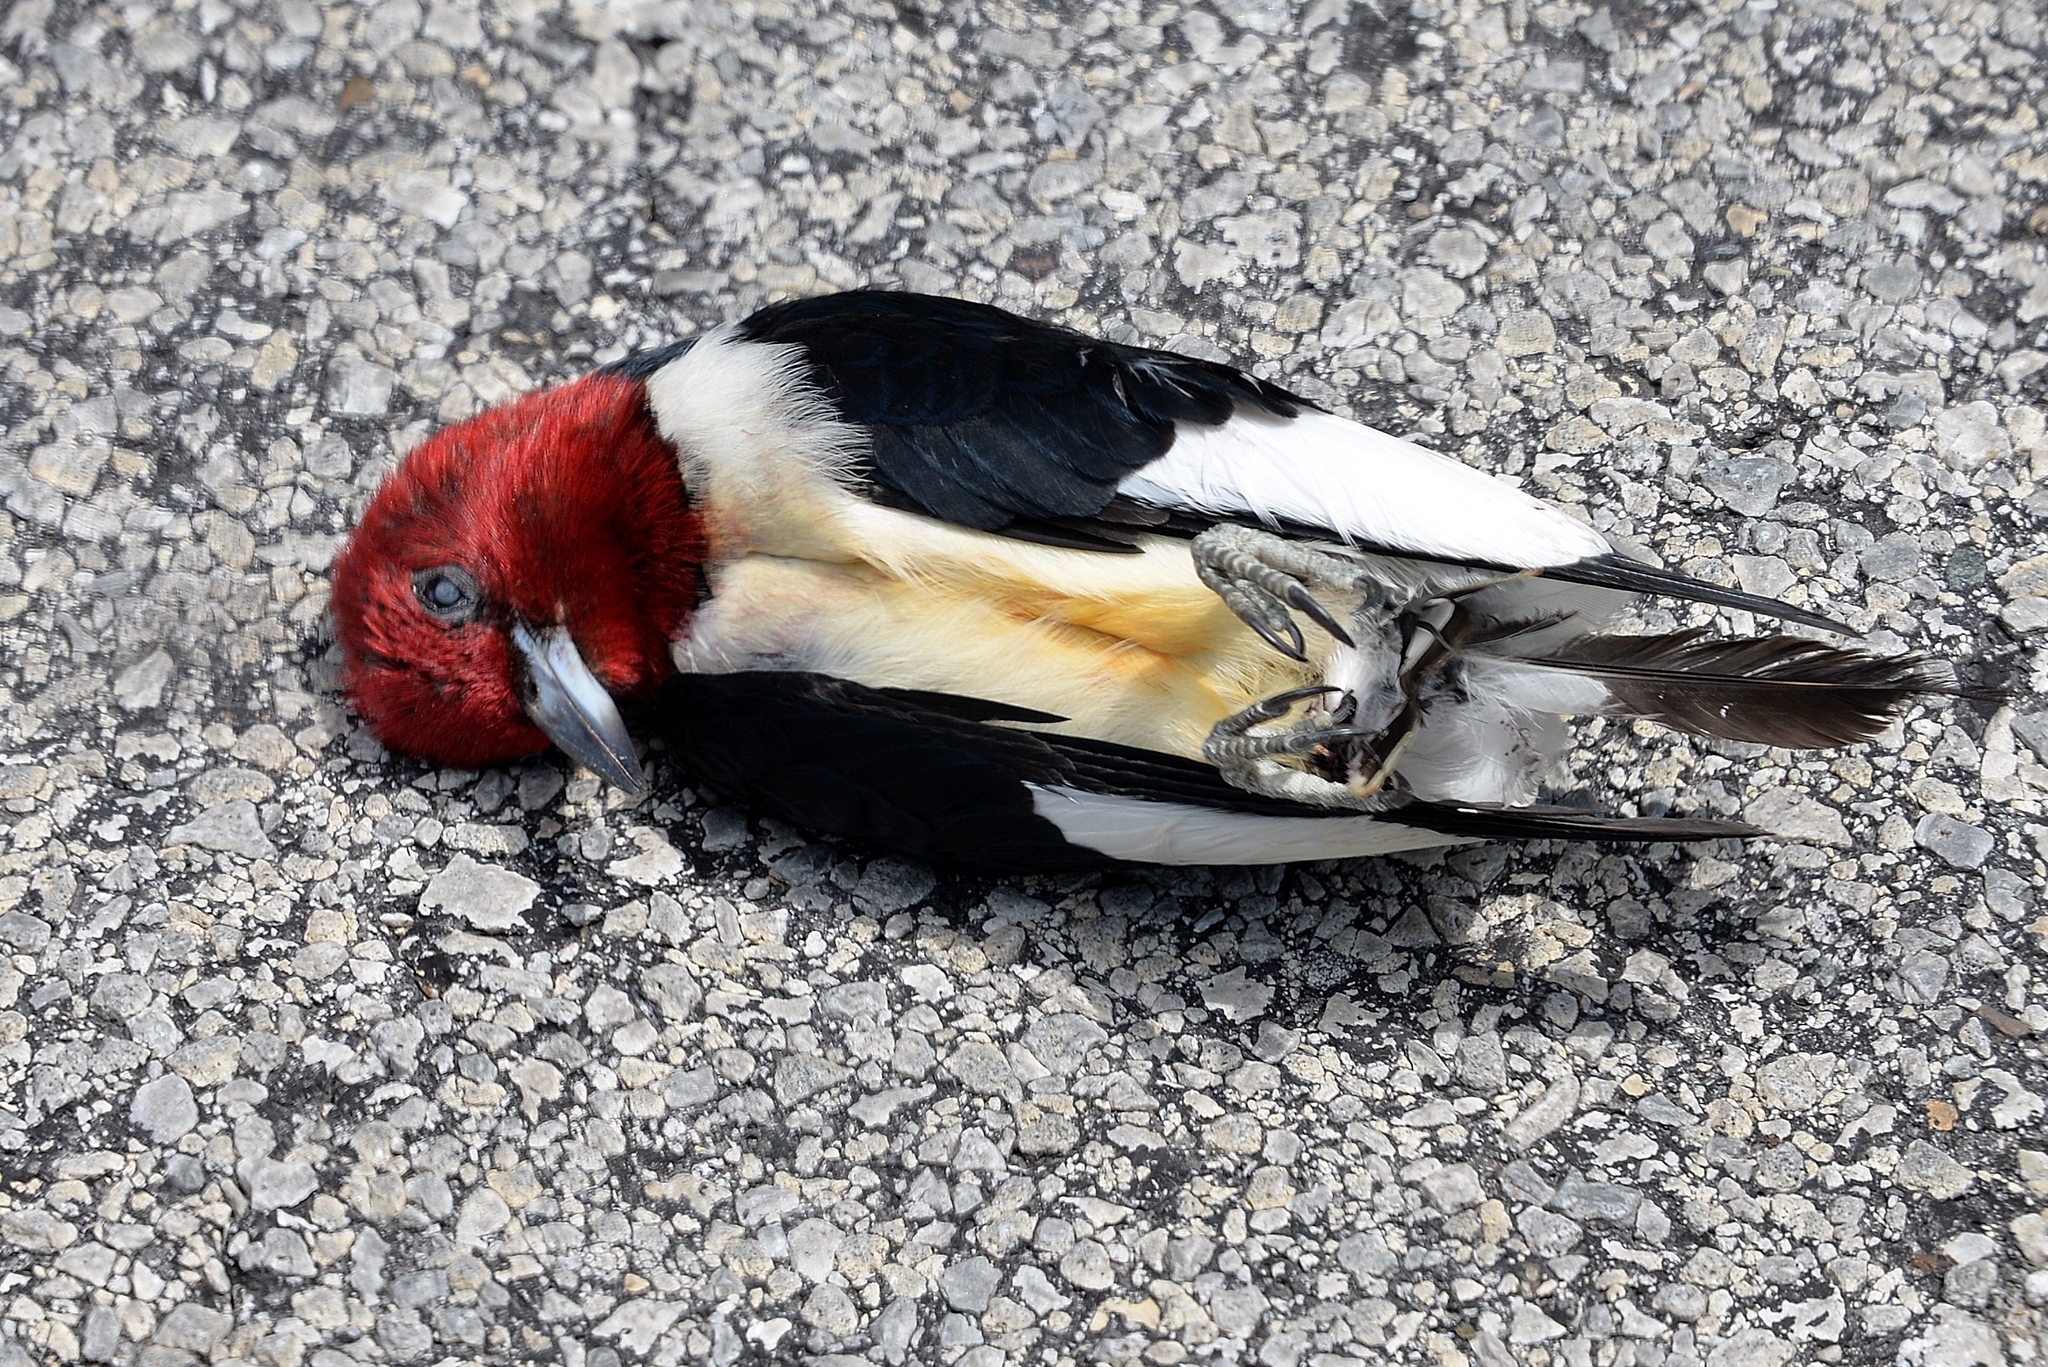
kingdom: Animalia
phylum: Chordata
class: Aves
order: Piciformes
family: Picidae
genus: Melanerpes
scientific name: Melanerpes erythrocephalus
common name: Red-headed woodpecker
